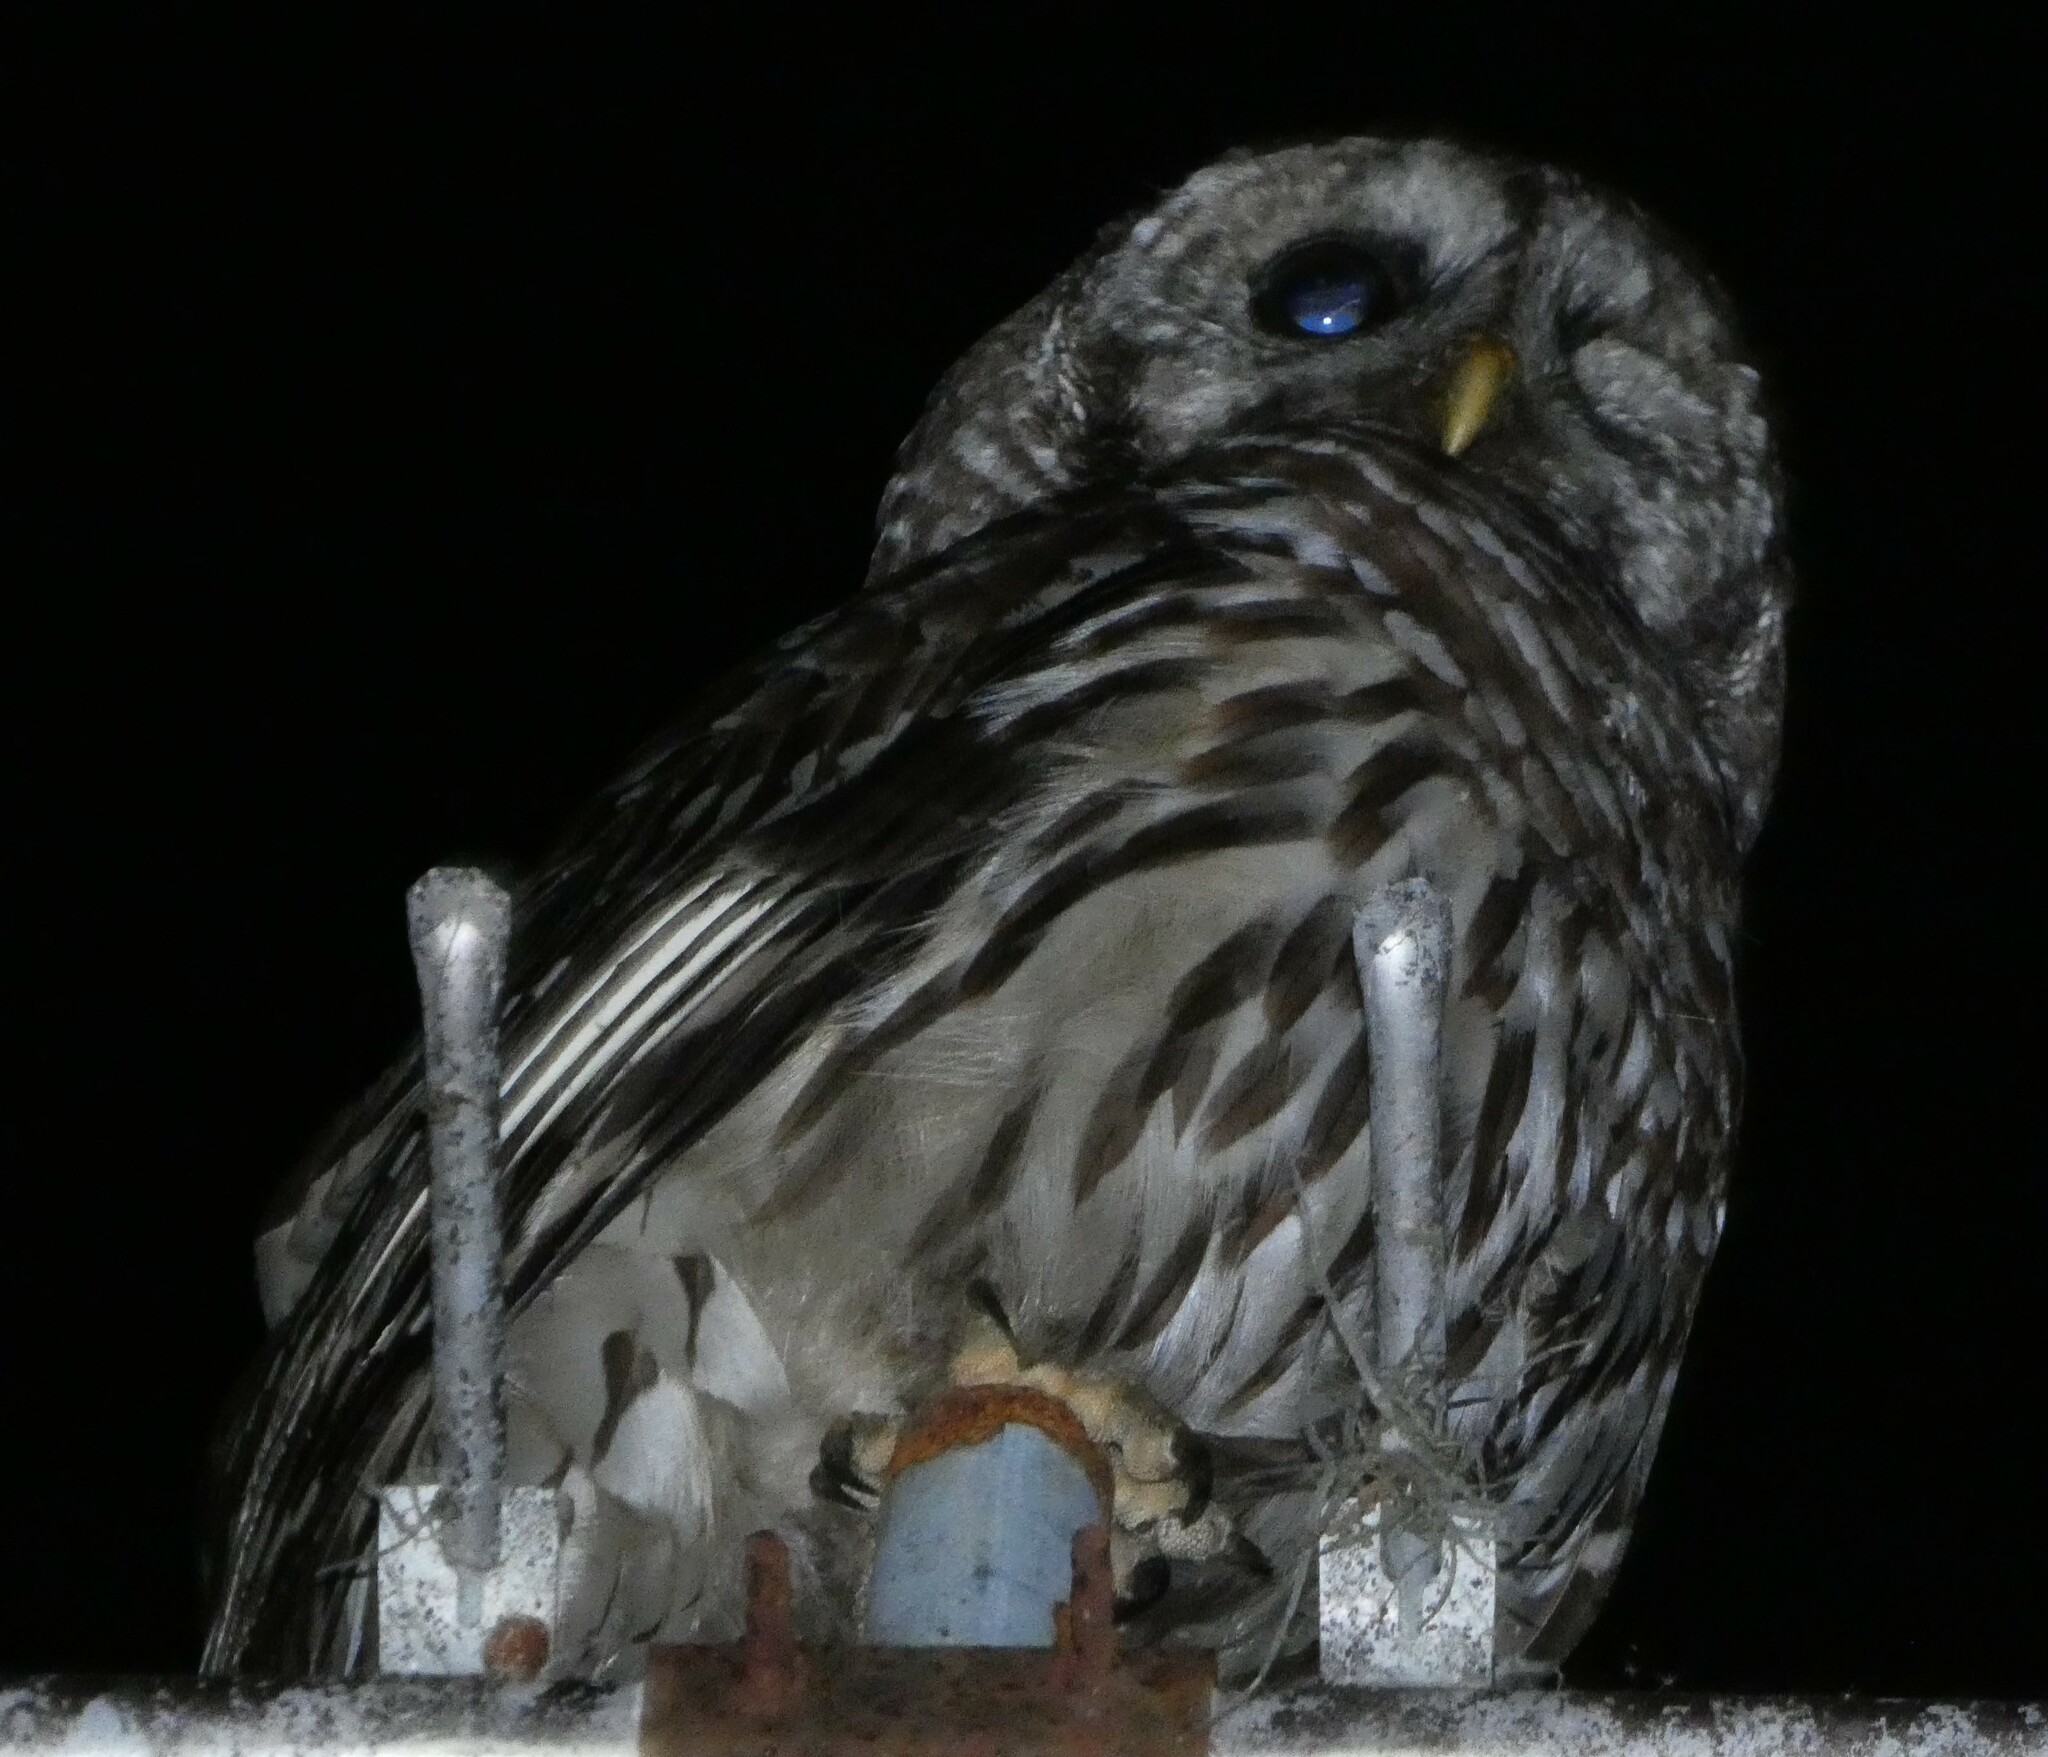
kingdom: Animalia
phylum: Chordata
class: Aves
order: Strigiformes
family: Strigidae
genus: Strix
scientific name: Strix varia
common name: Barred owl
